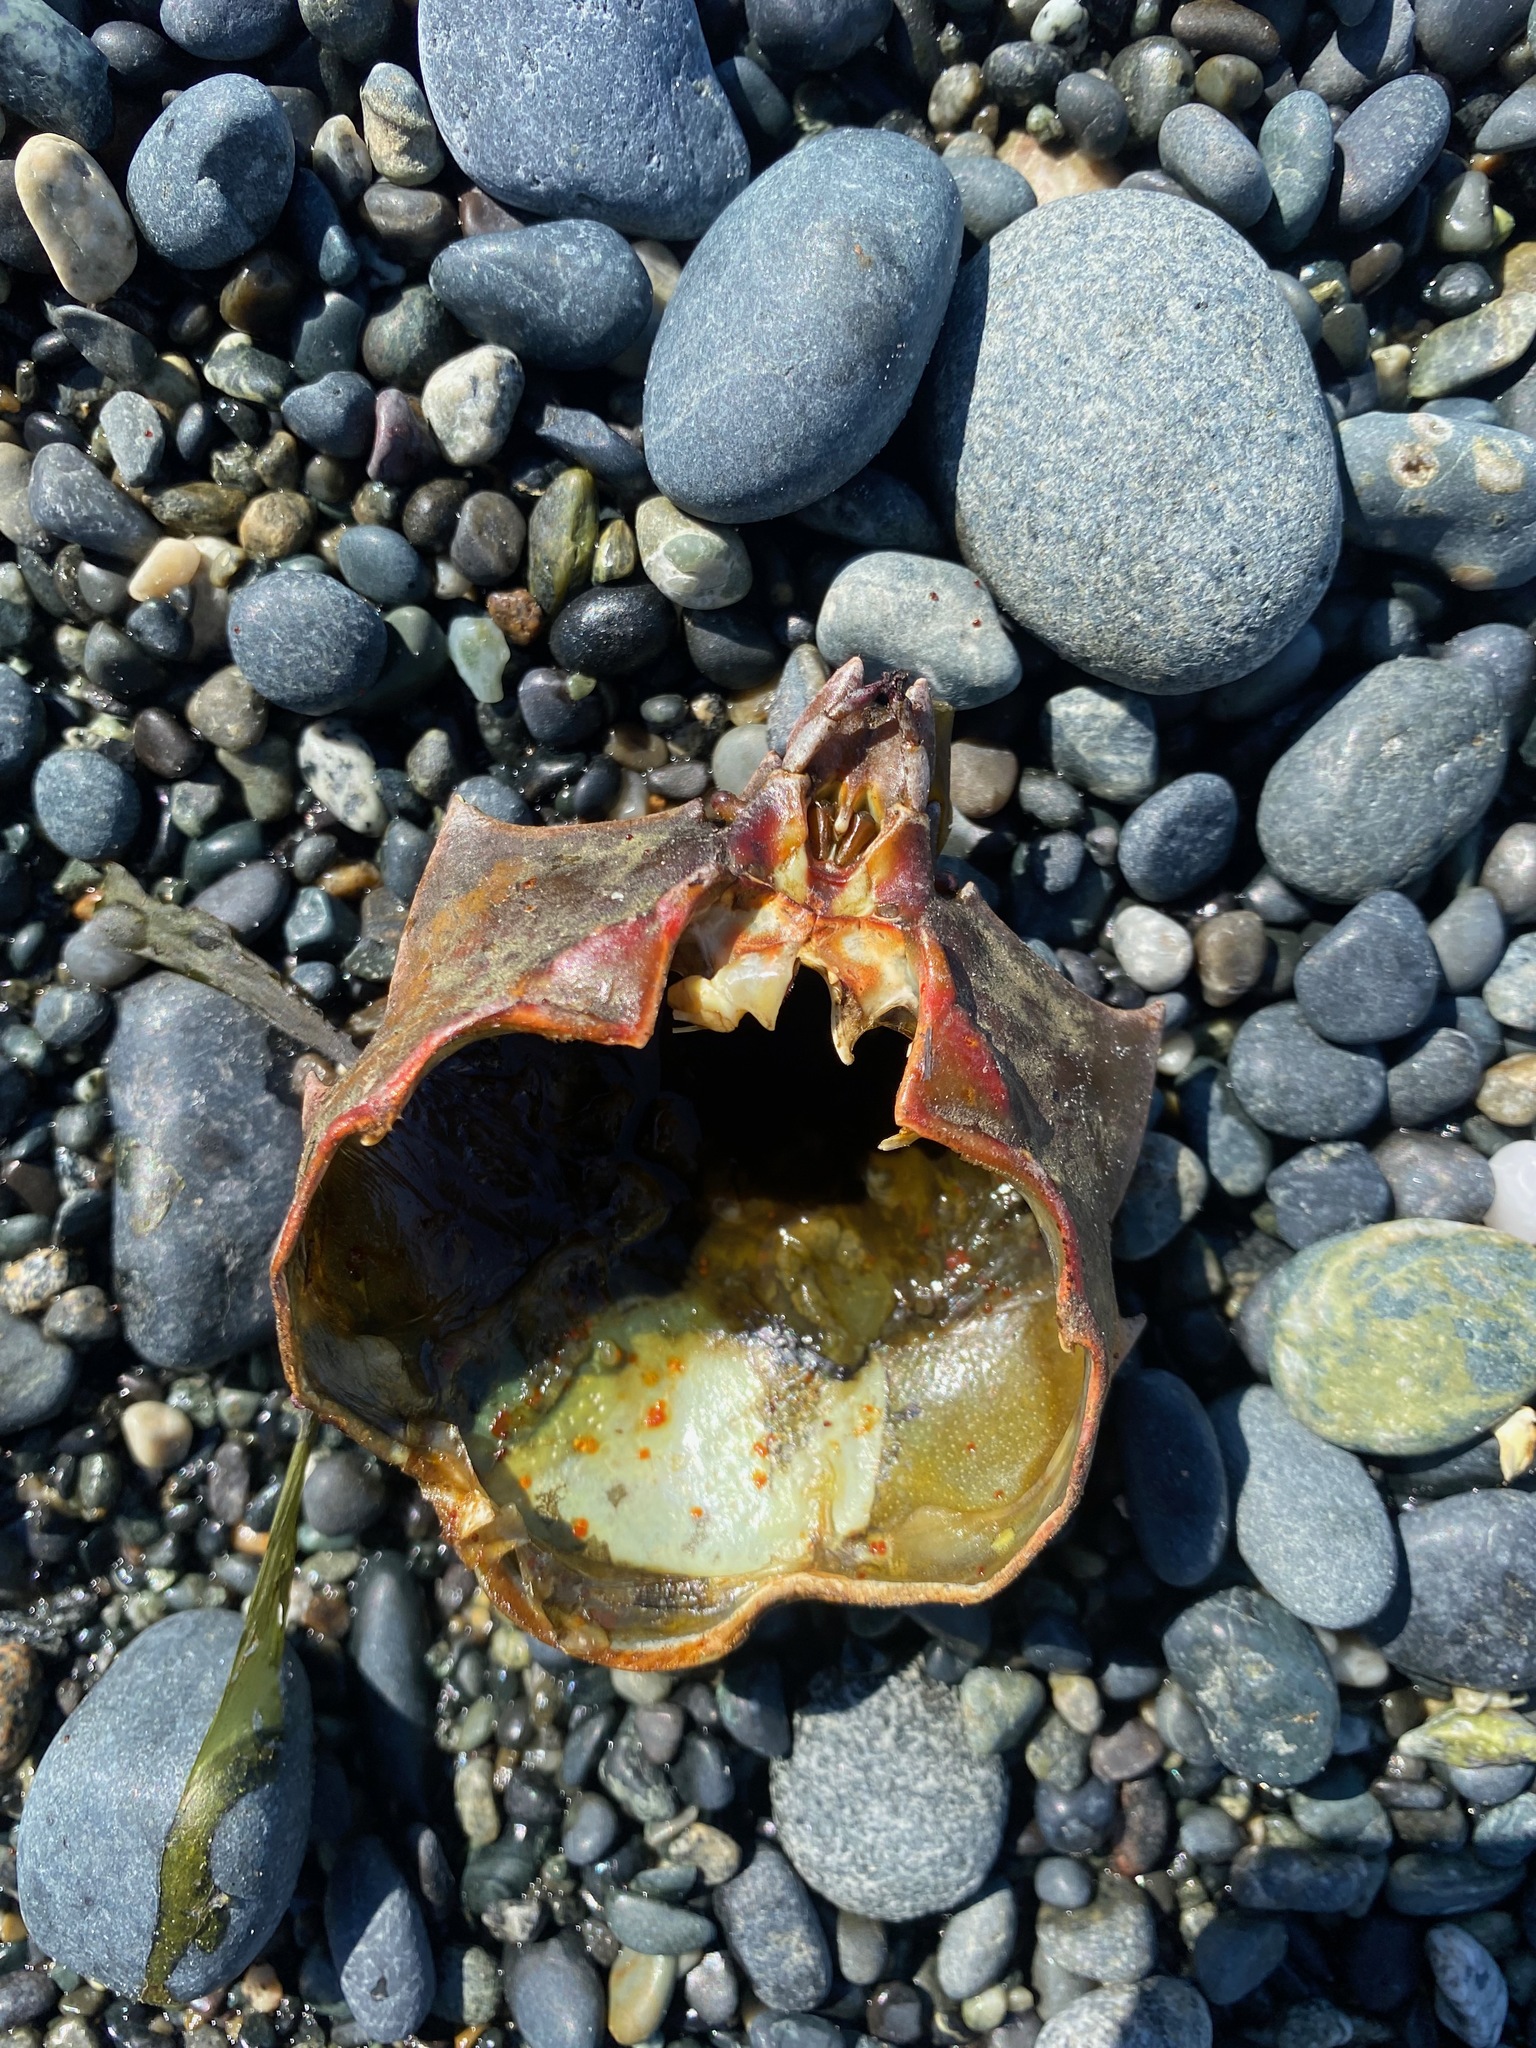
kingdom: Animalia
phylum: Arthropoda
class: Malacostraca
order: Decapoda
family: Epialtidae
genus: Pugettia
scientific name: Pugettia producta
